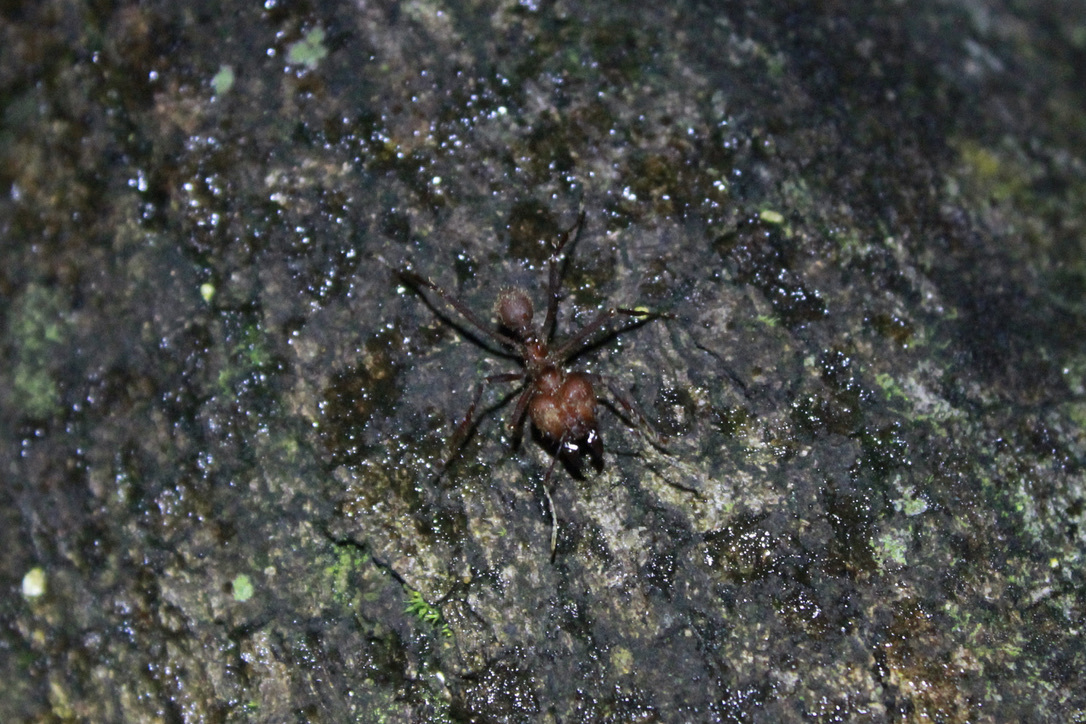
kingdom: Animalia
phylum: Arthropoda
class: Insecta
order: Hymenoptera
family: Formicidae
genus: Atta
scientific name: Atta cephalotes
